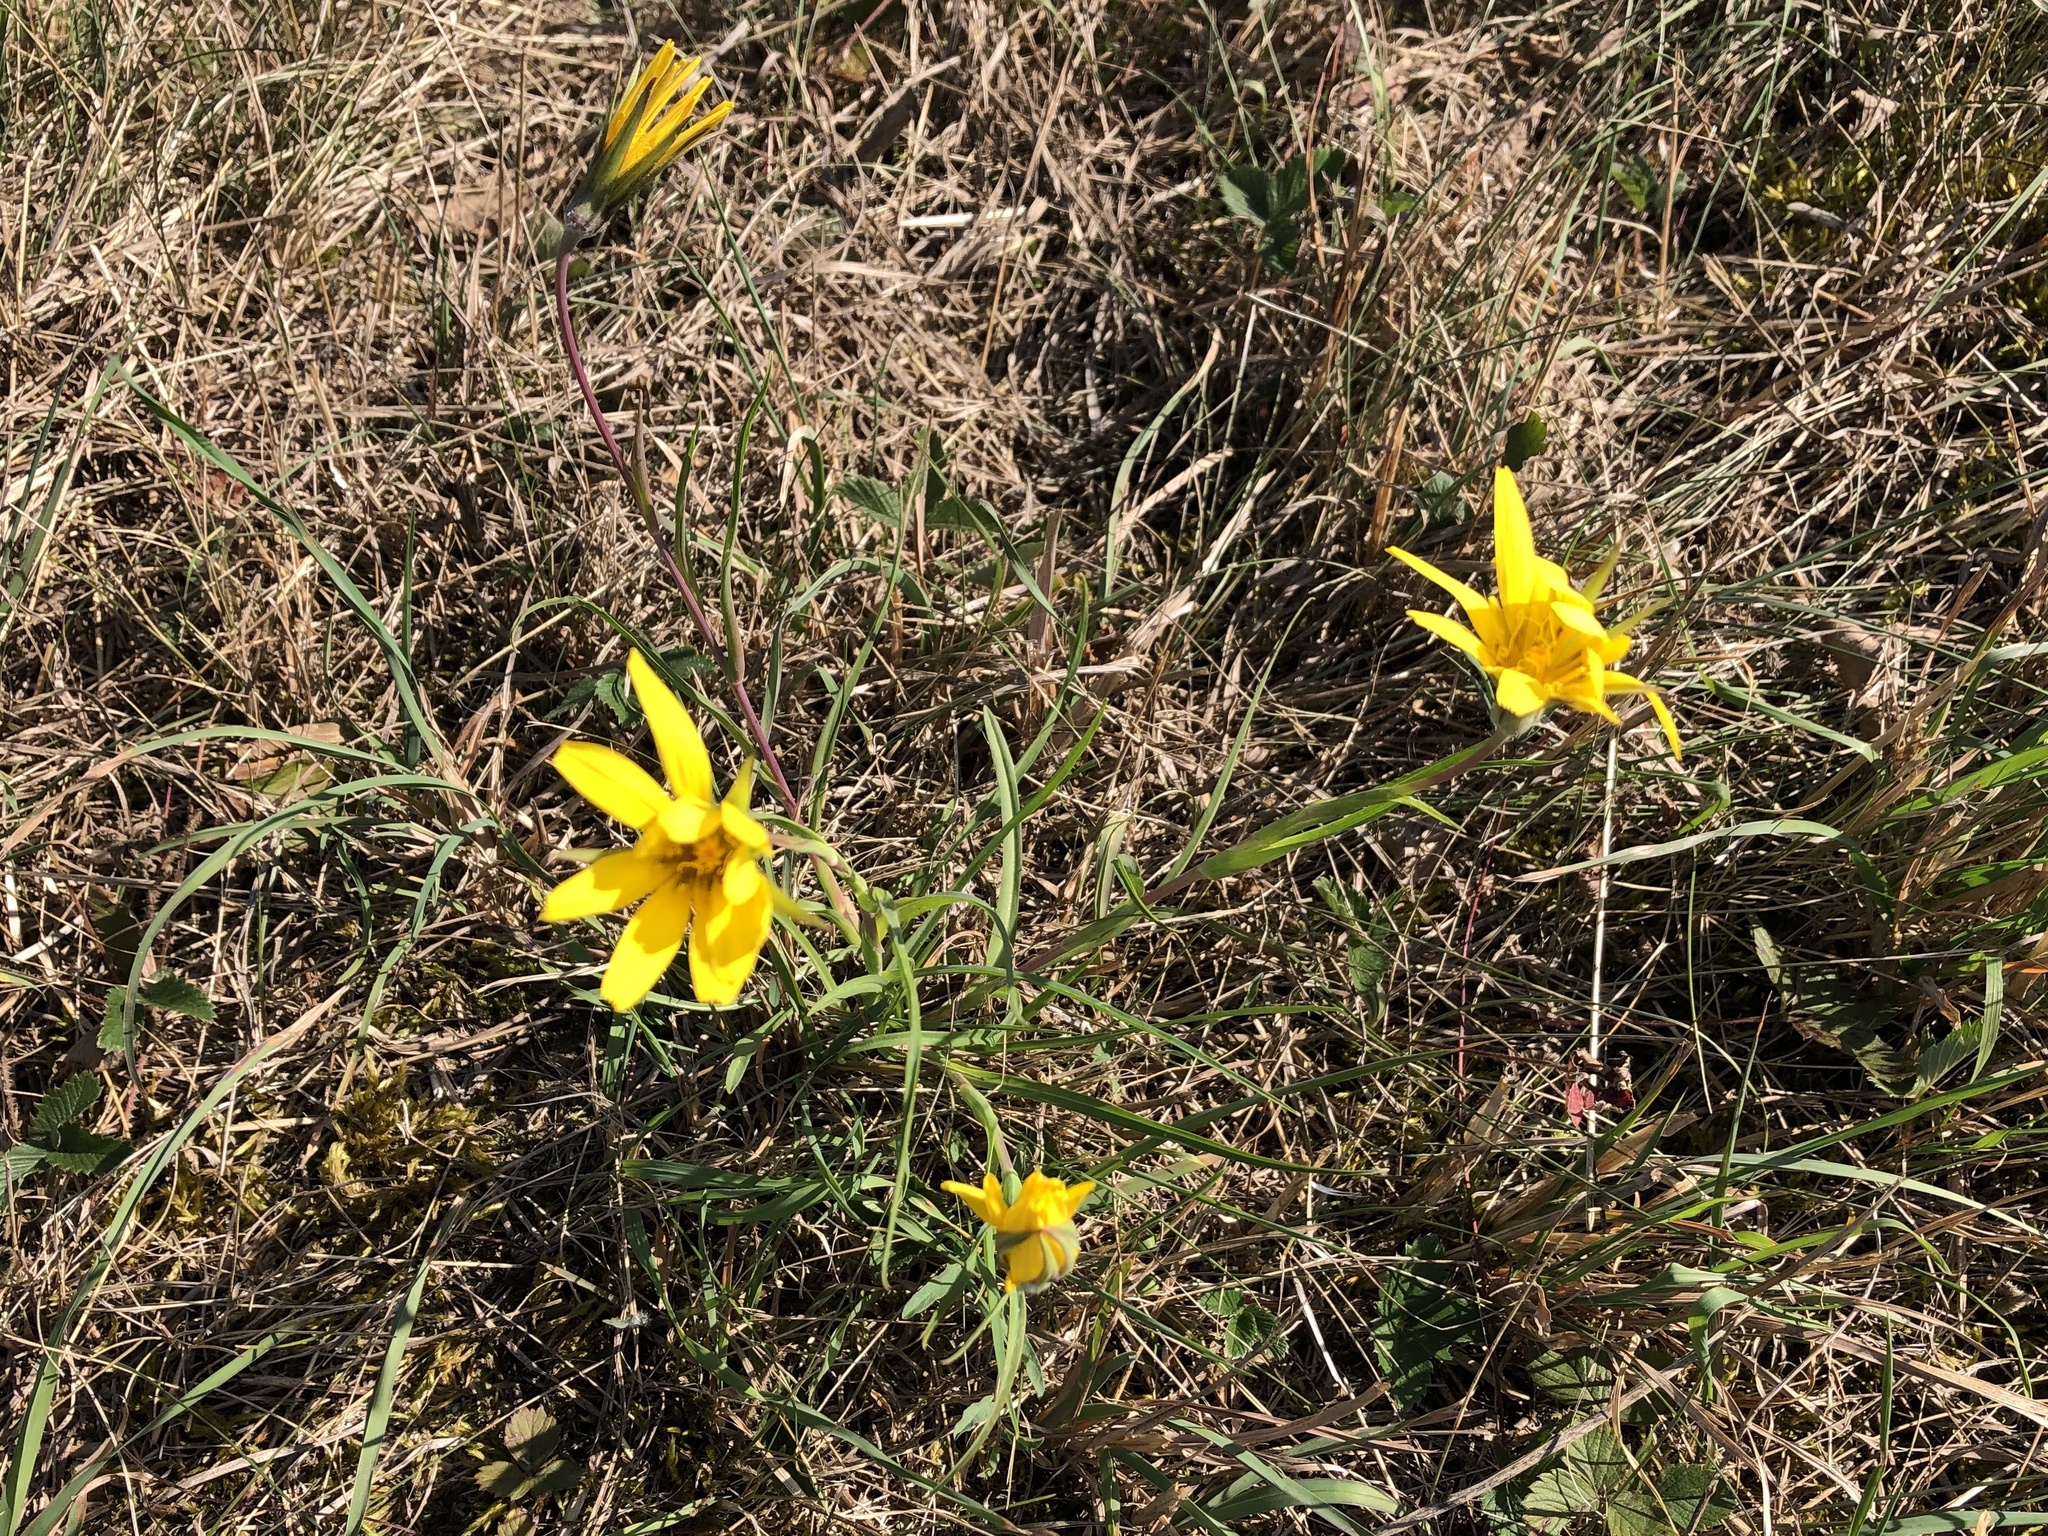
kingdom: Plantae
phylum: Tracheophyta
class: Magnoliopsida
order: Asterales
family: Asteraceae
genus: Tragopogon
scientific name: Tragopogon orientalis
